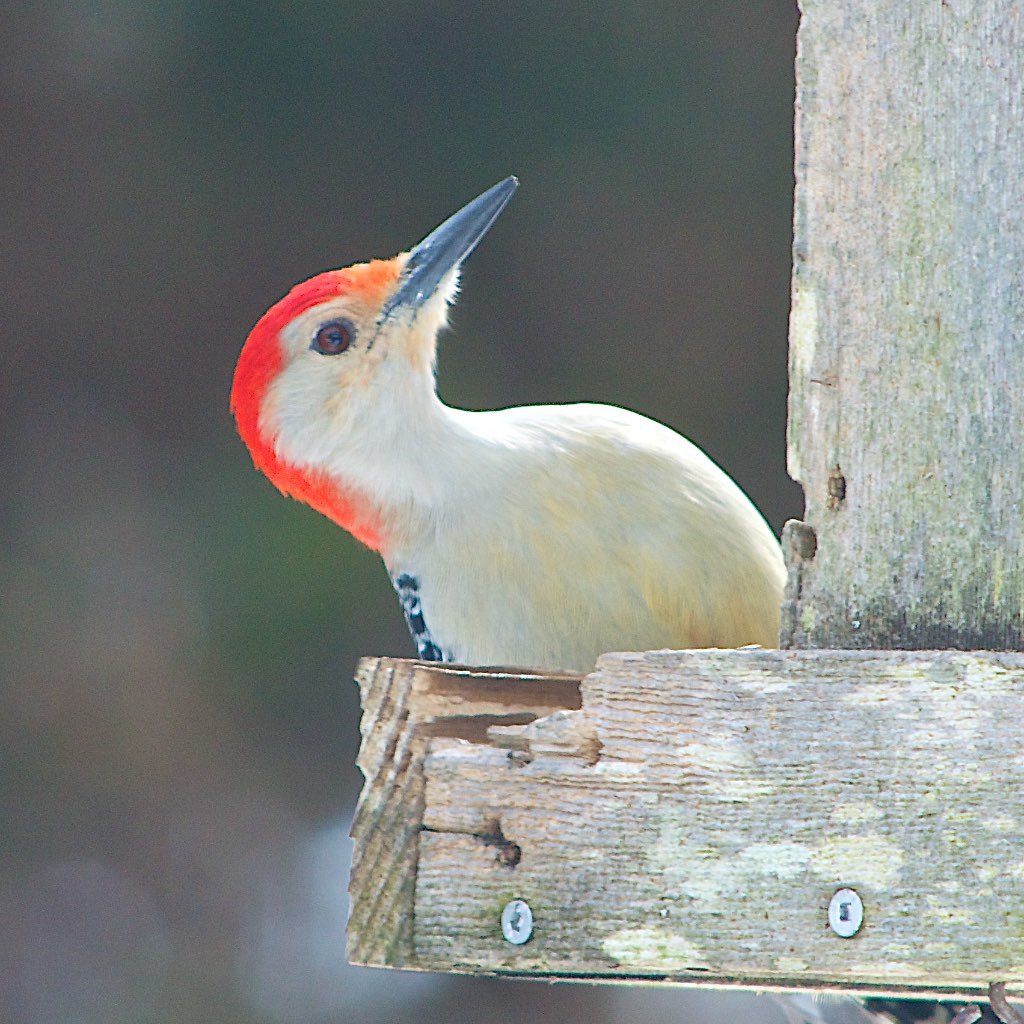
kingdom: Animalia
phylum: Chordata
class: Aves
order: Piciformes
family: Picidae
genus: Melanerpes
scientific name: Melanerpes carolinus
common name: Red-bellied woodpecker
